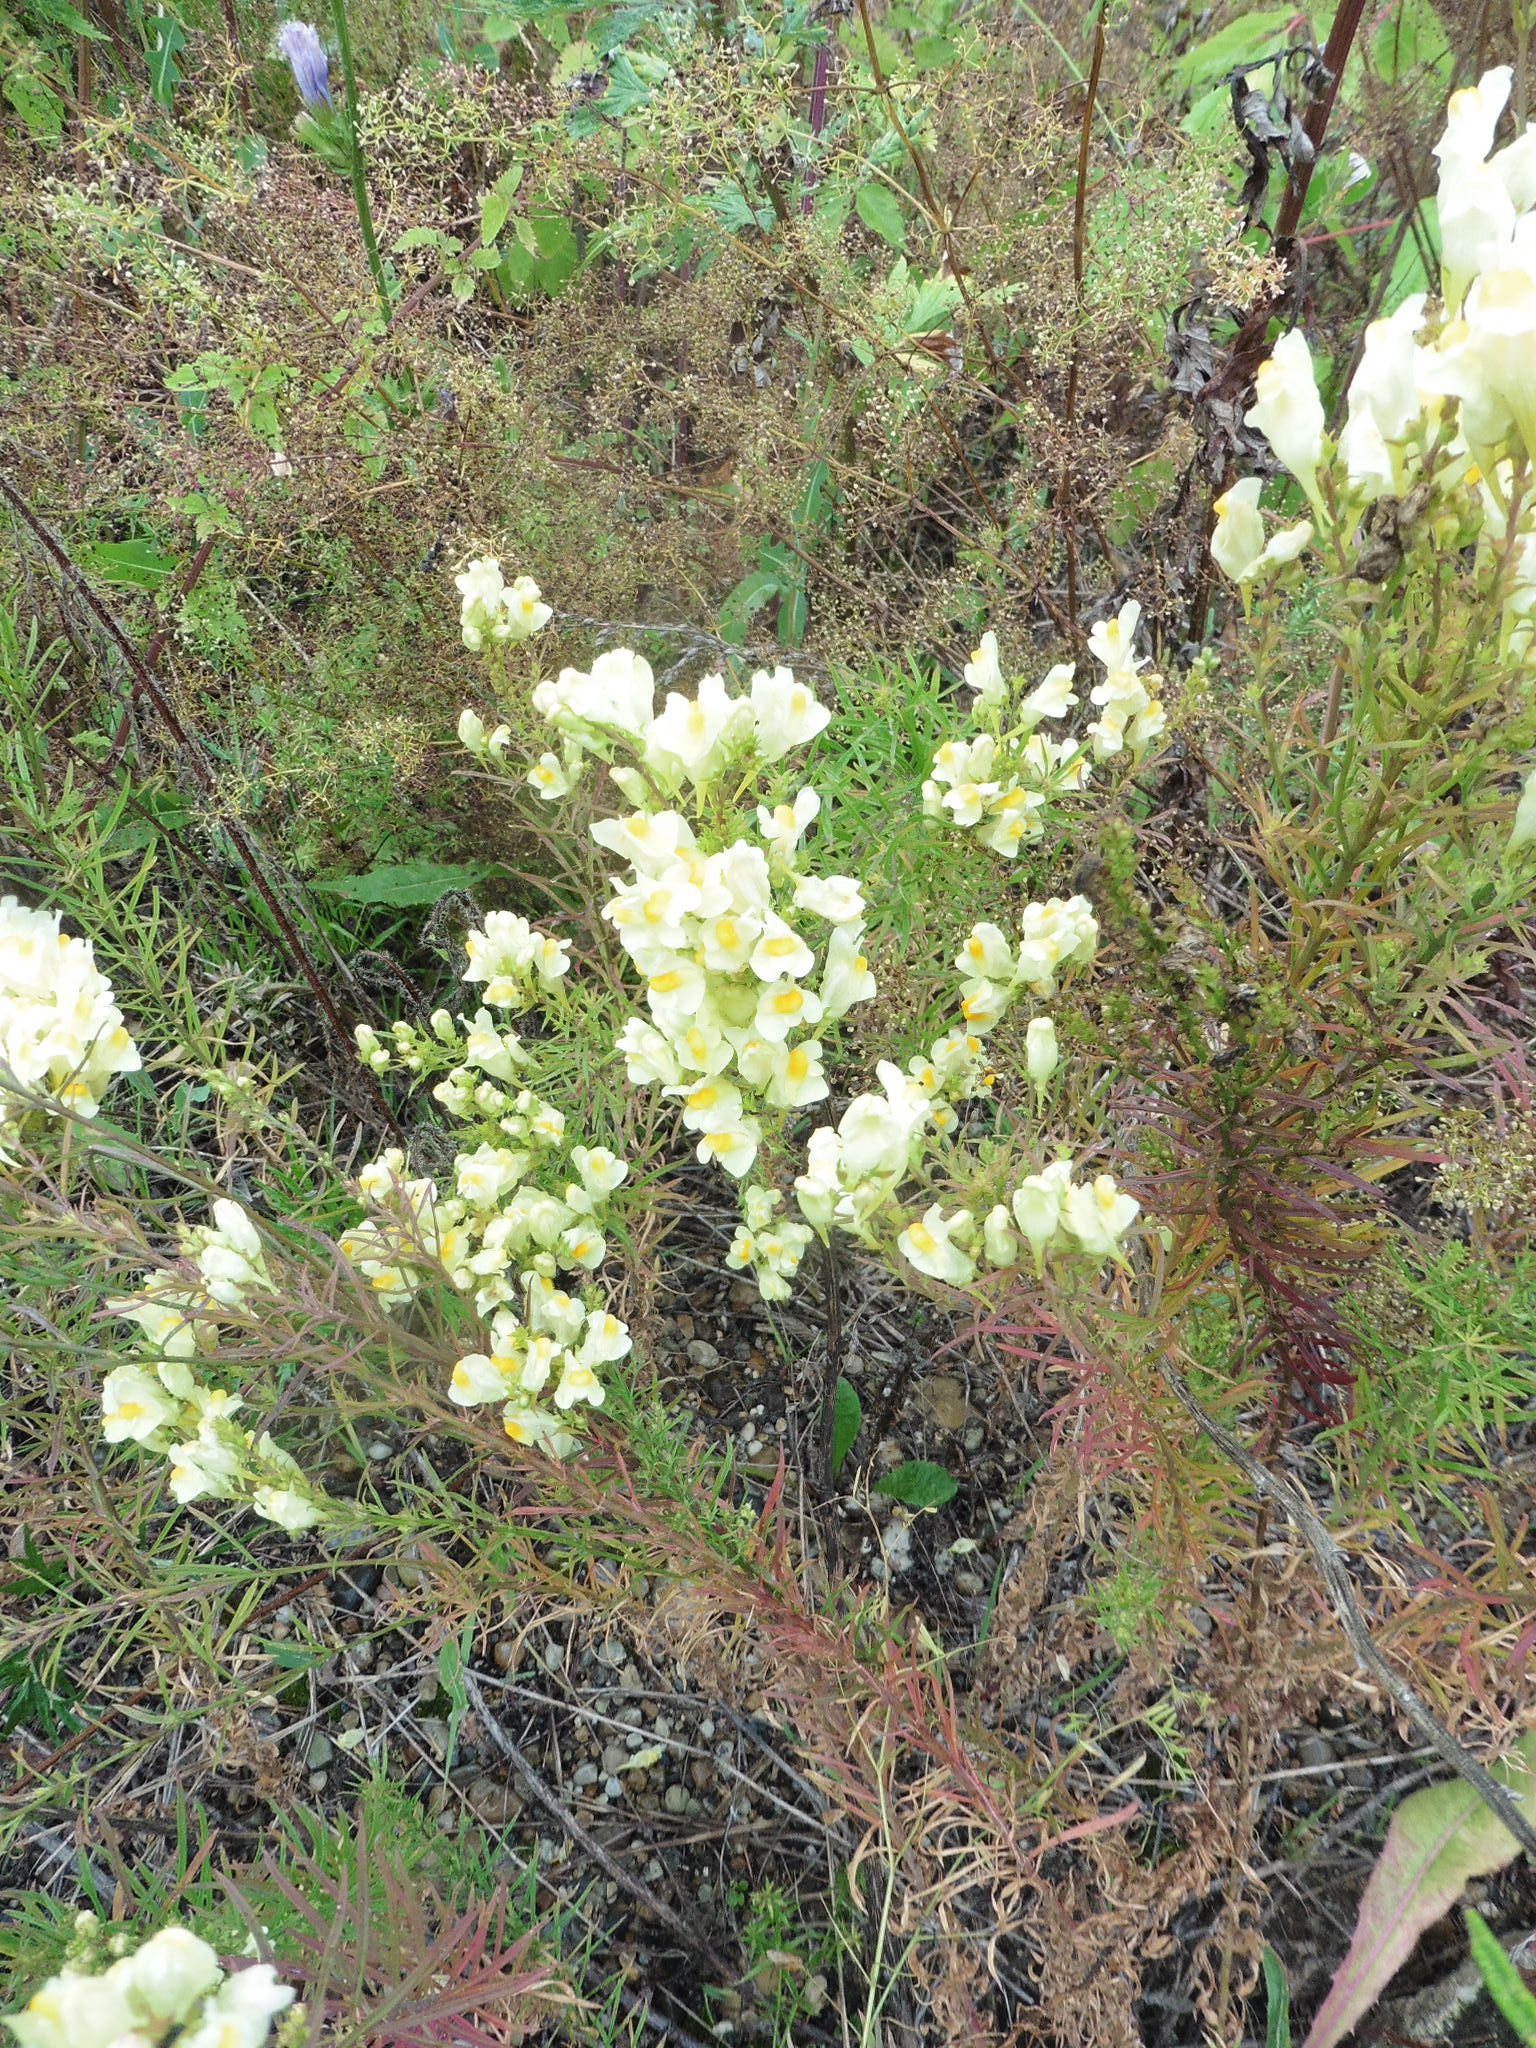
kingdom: Plantae
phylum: Tracheophyta
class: Magnoliopsida
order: Lamiales
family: Plantaginaceae
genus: Linaria
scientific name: Linaria vulgaris
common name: Butter and eggs
